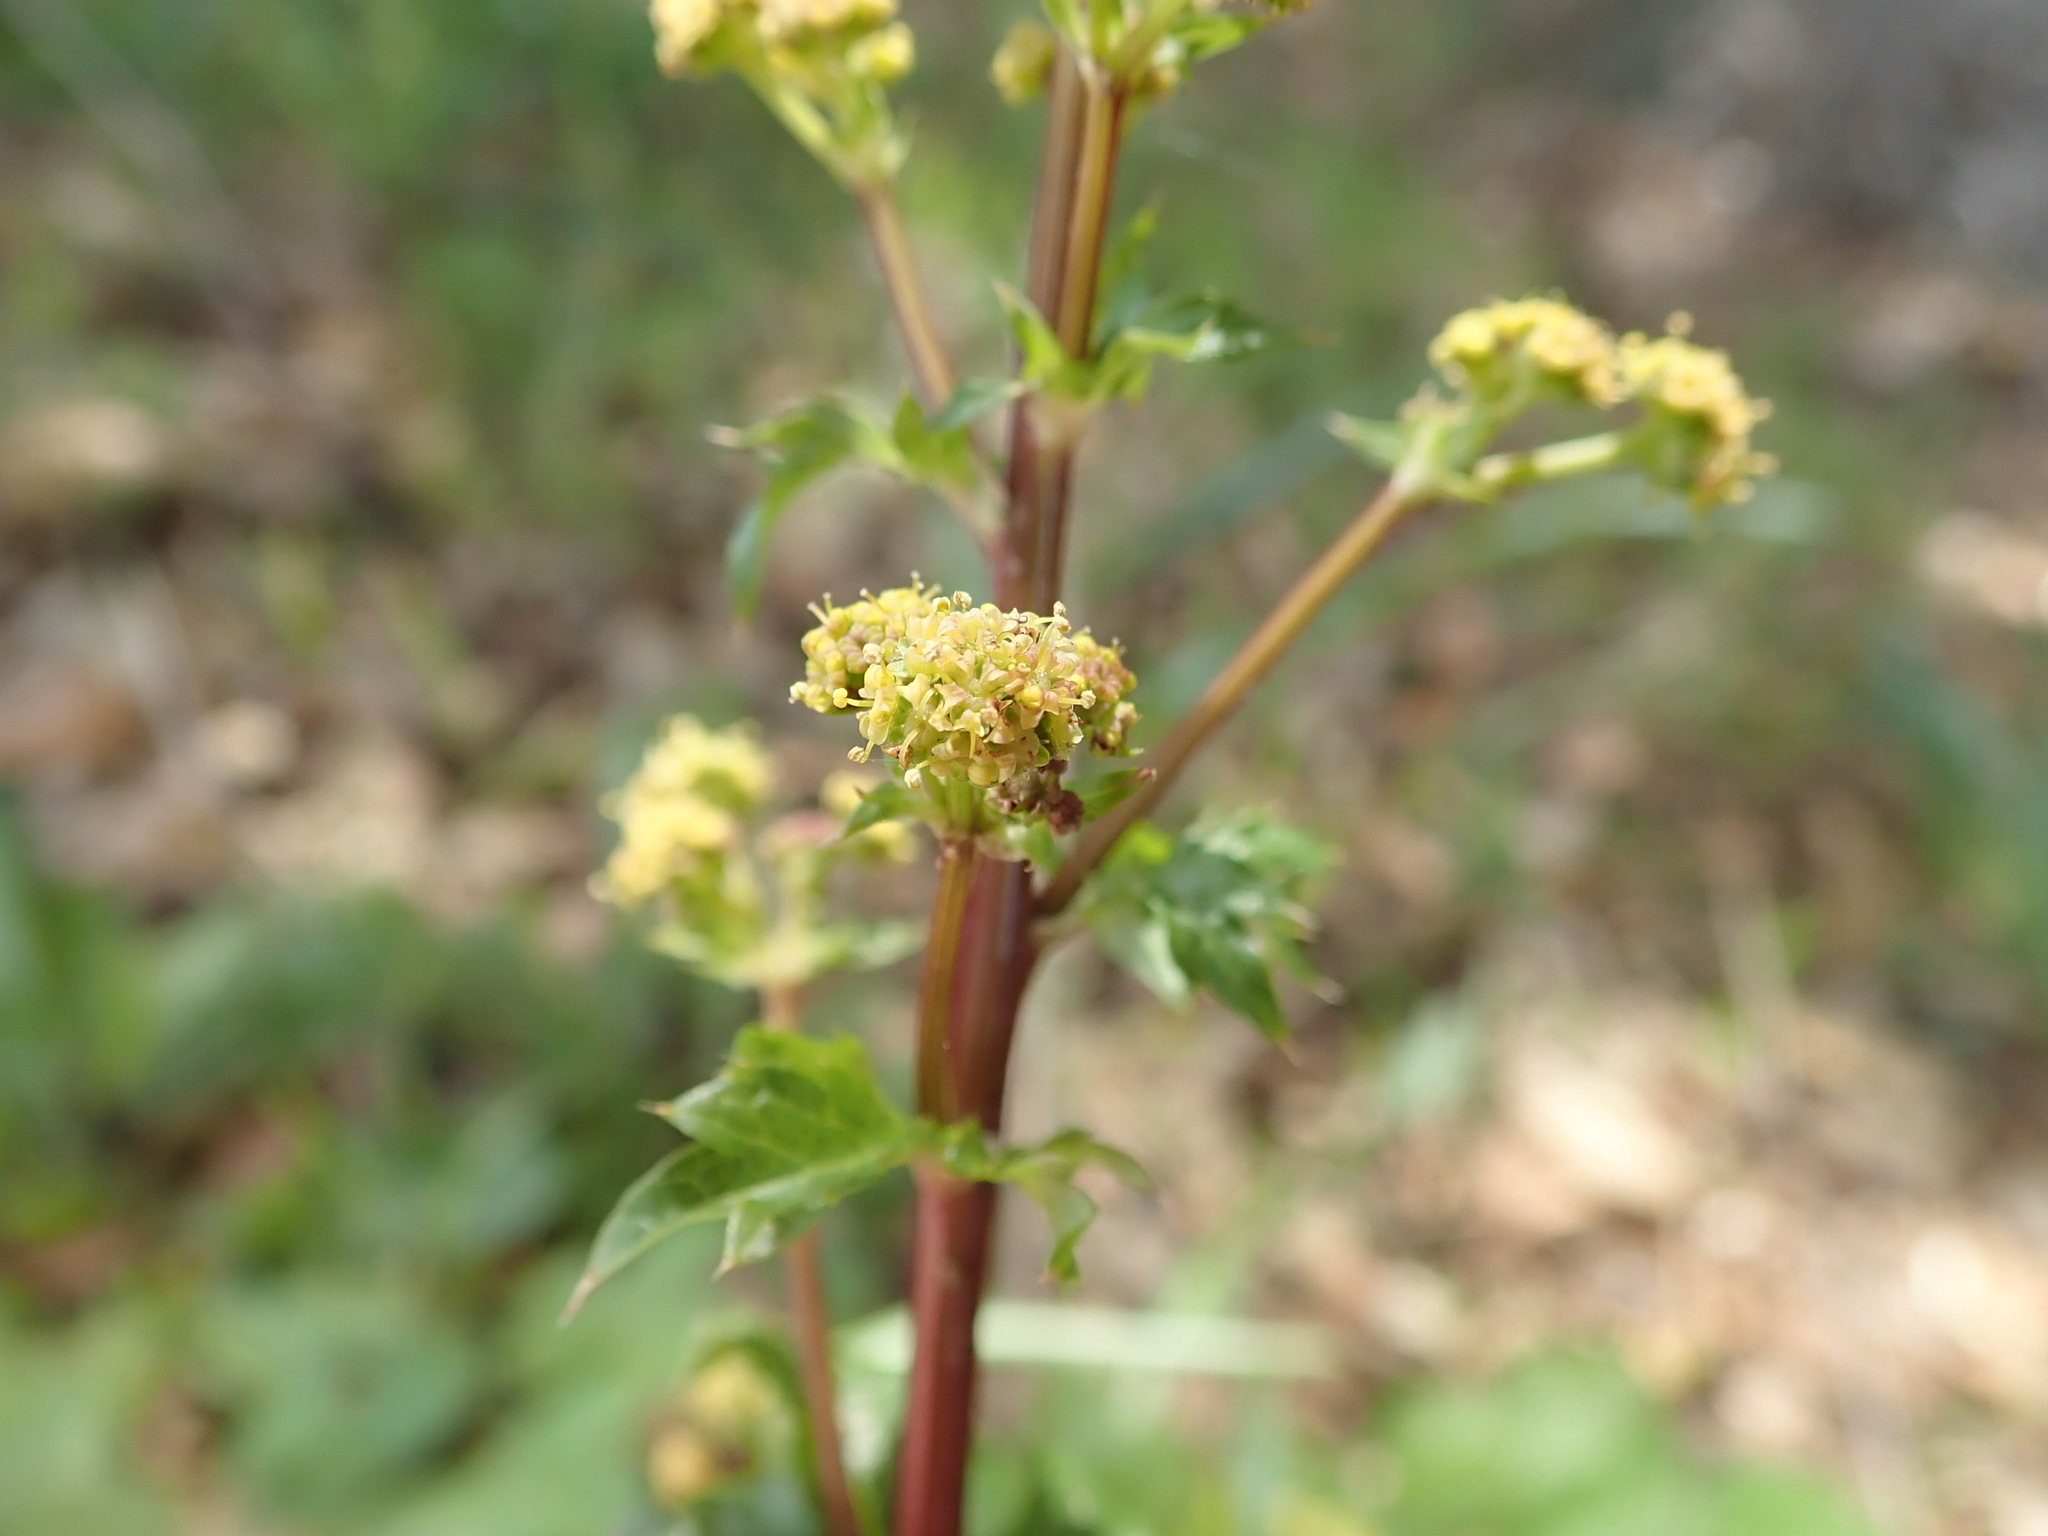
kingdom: Plantae
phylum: Tracheophyta
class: Magnoliopsida
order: Apiales
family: Apiaceae
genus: Sanicula
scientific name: Sanicula crassicaulis
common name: Western snakeroot
